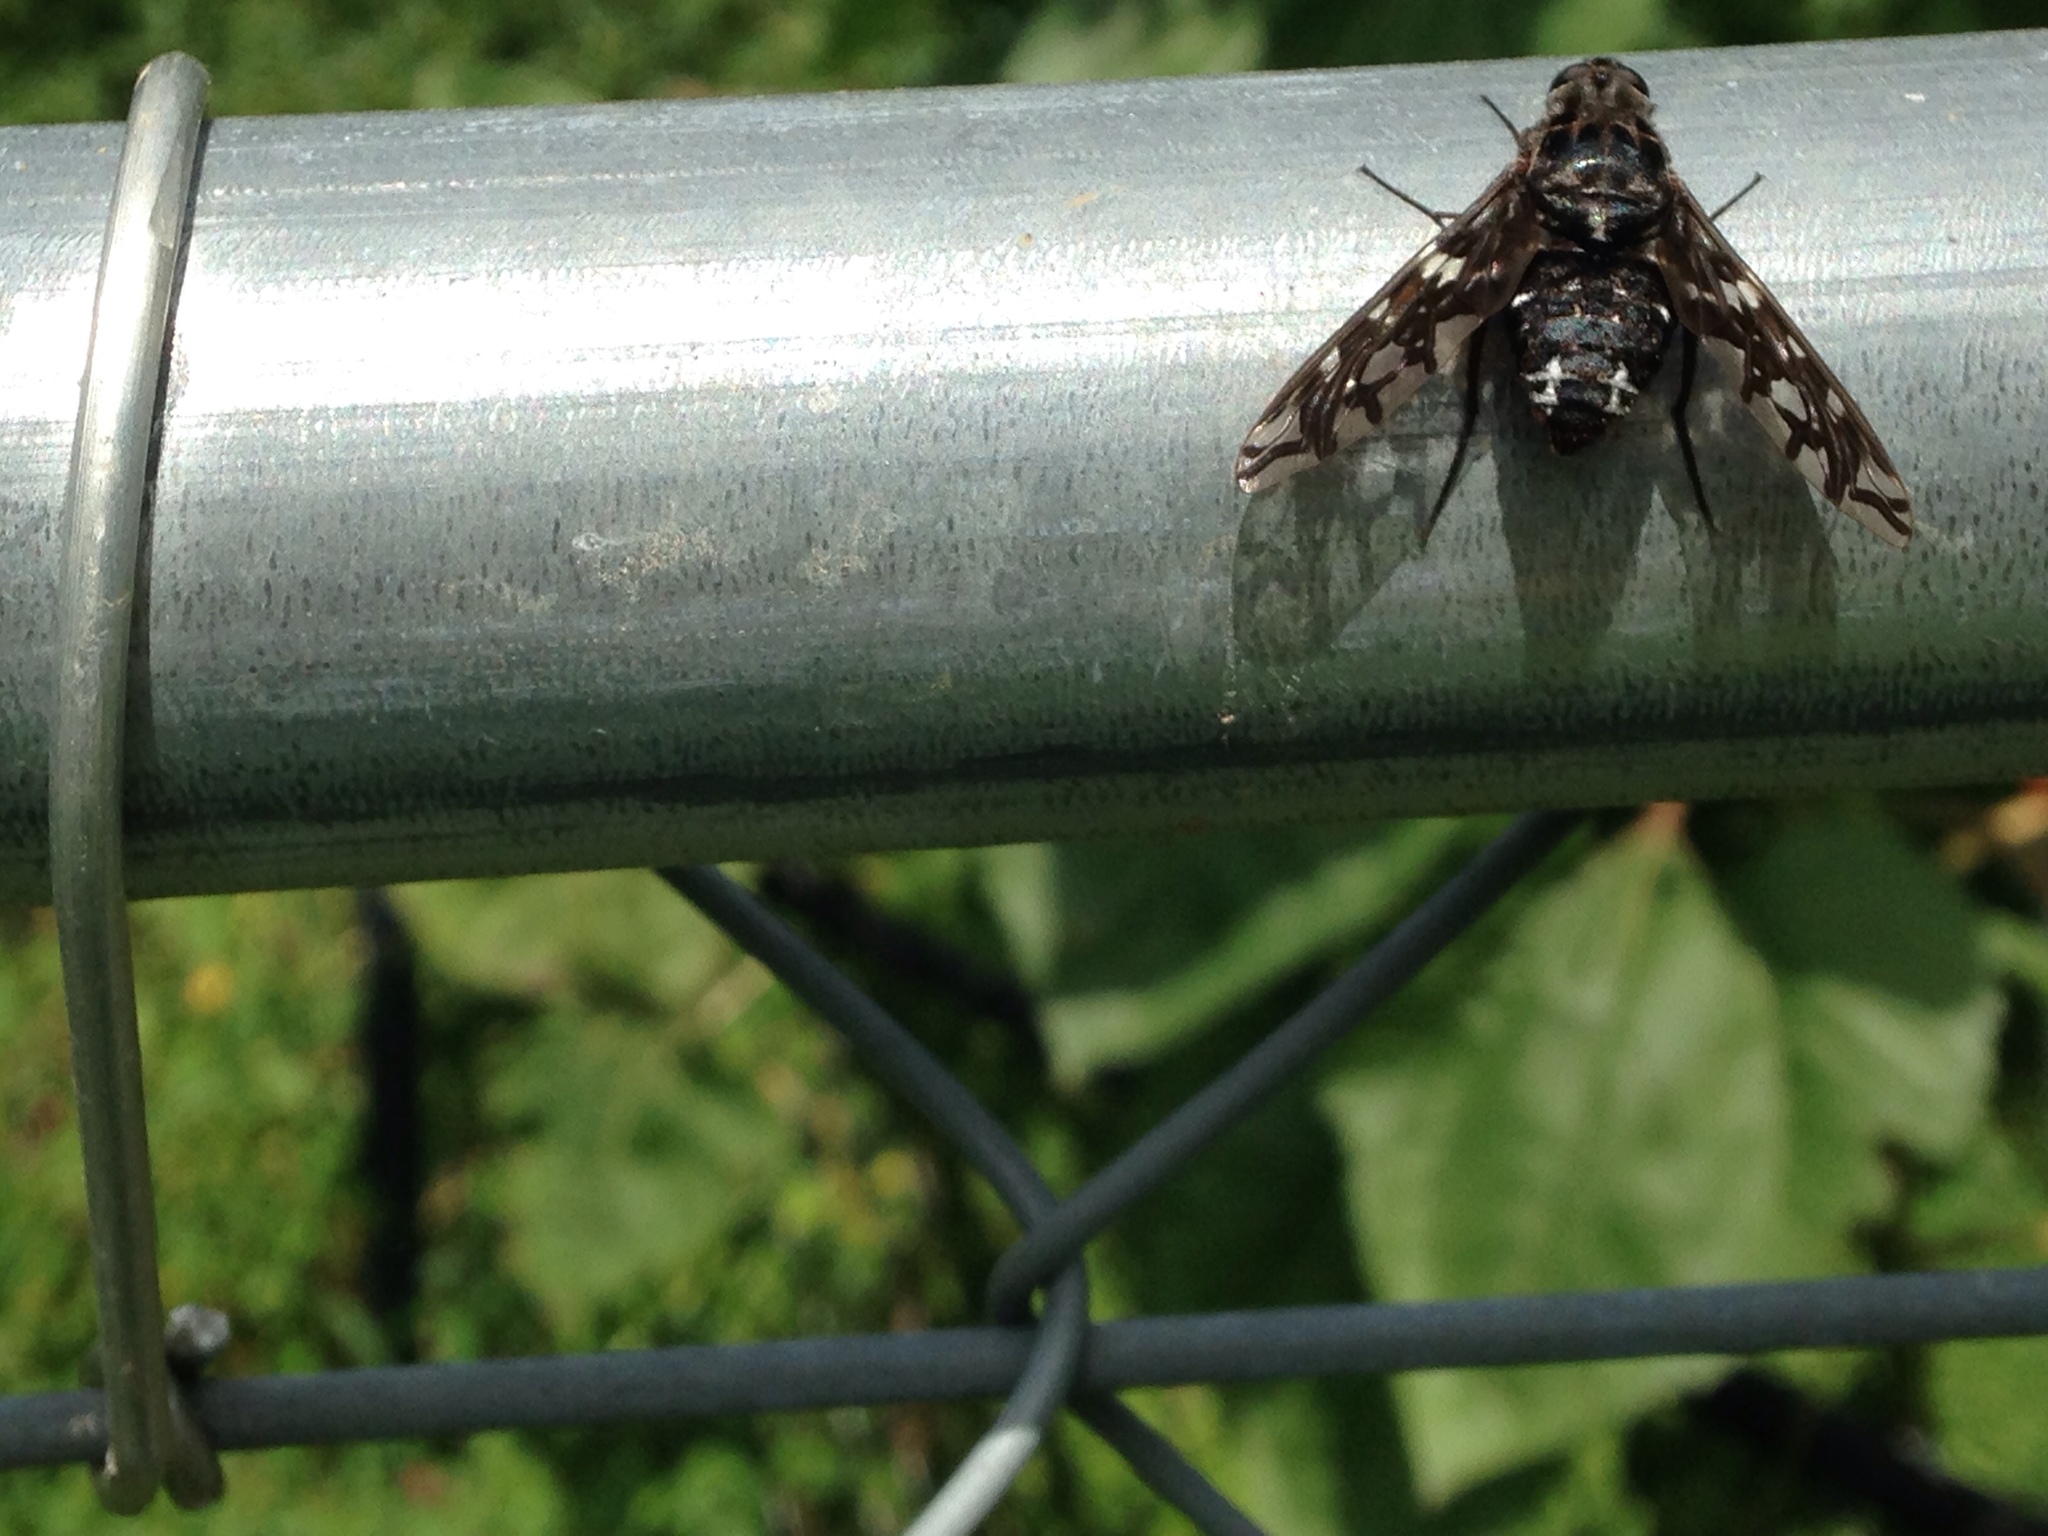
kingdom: Animalia
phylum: Arthropoda
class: Insecta
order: Diptera
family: Bombyliidae
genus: Xenox
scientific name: Xenox tigrinus
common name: Tiger bee fly
